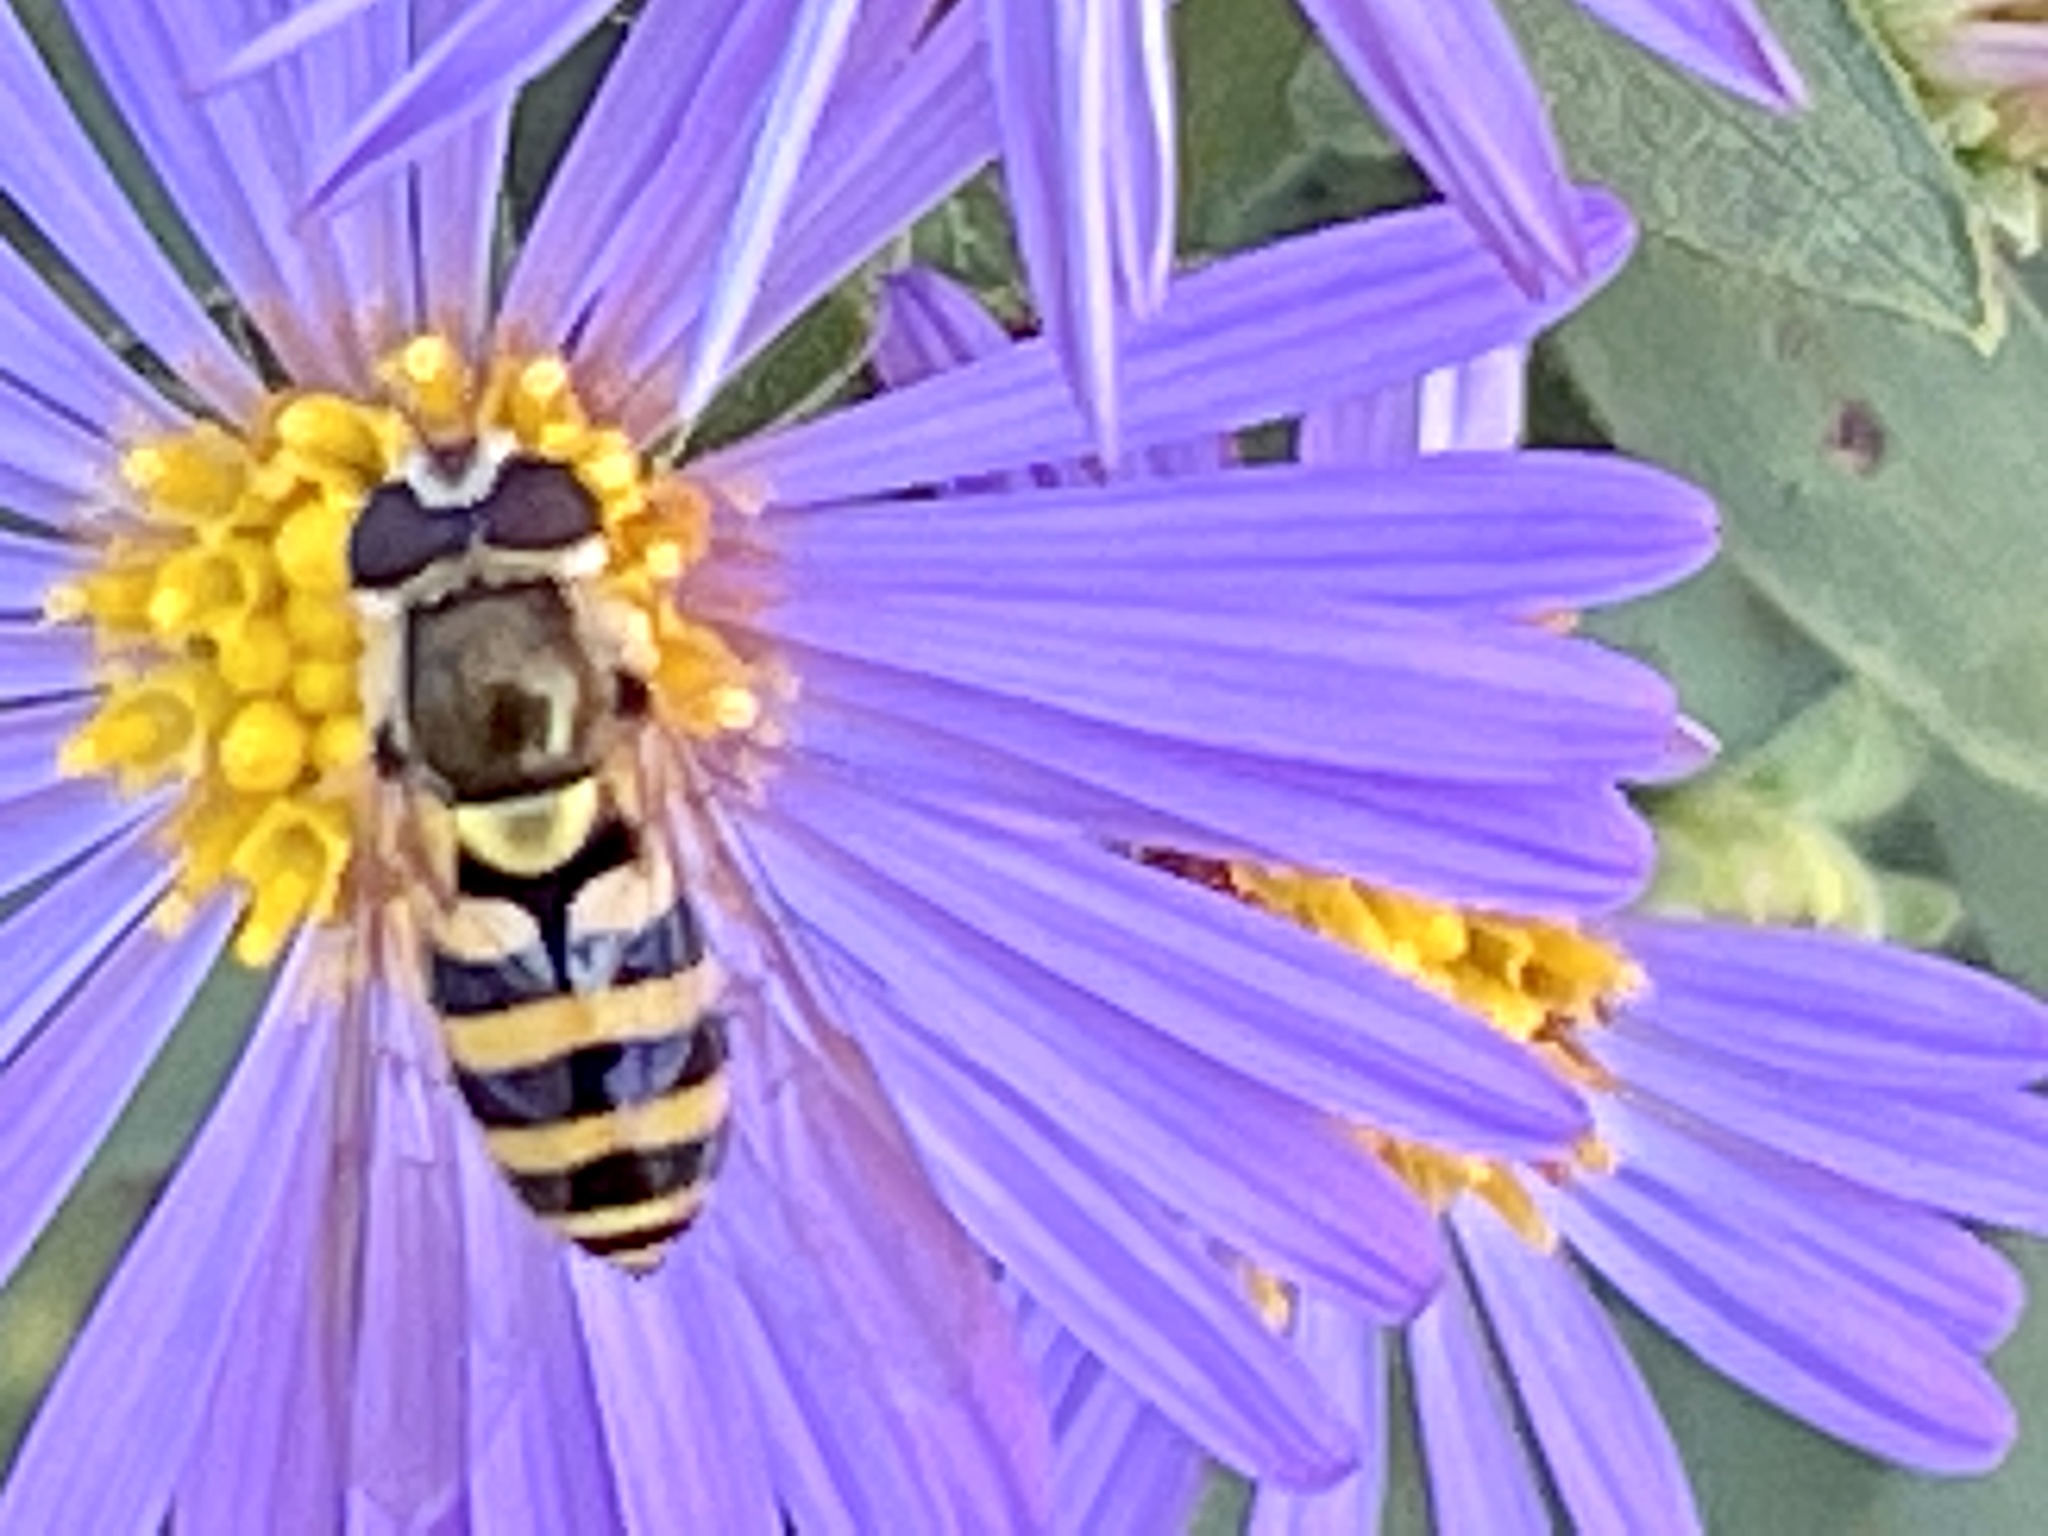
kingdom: Animalia
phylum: Arthropoda
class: Insecta
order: Diptera
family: Syrphidae
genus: Syrphus
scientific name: Syrphus
